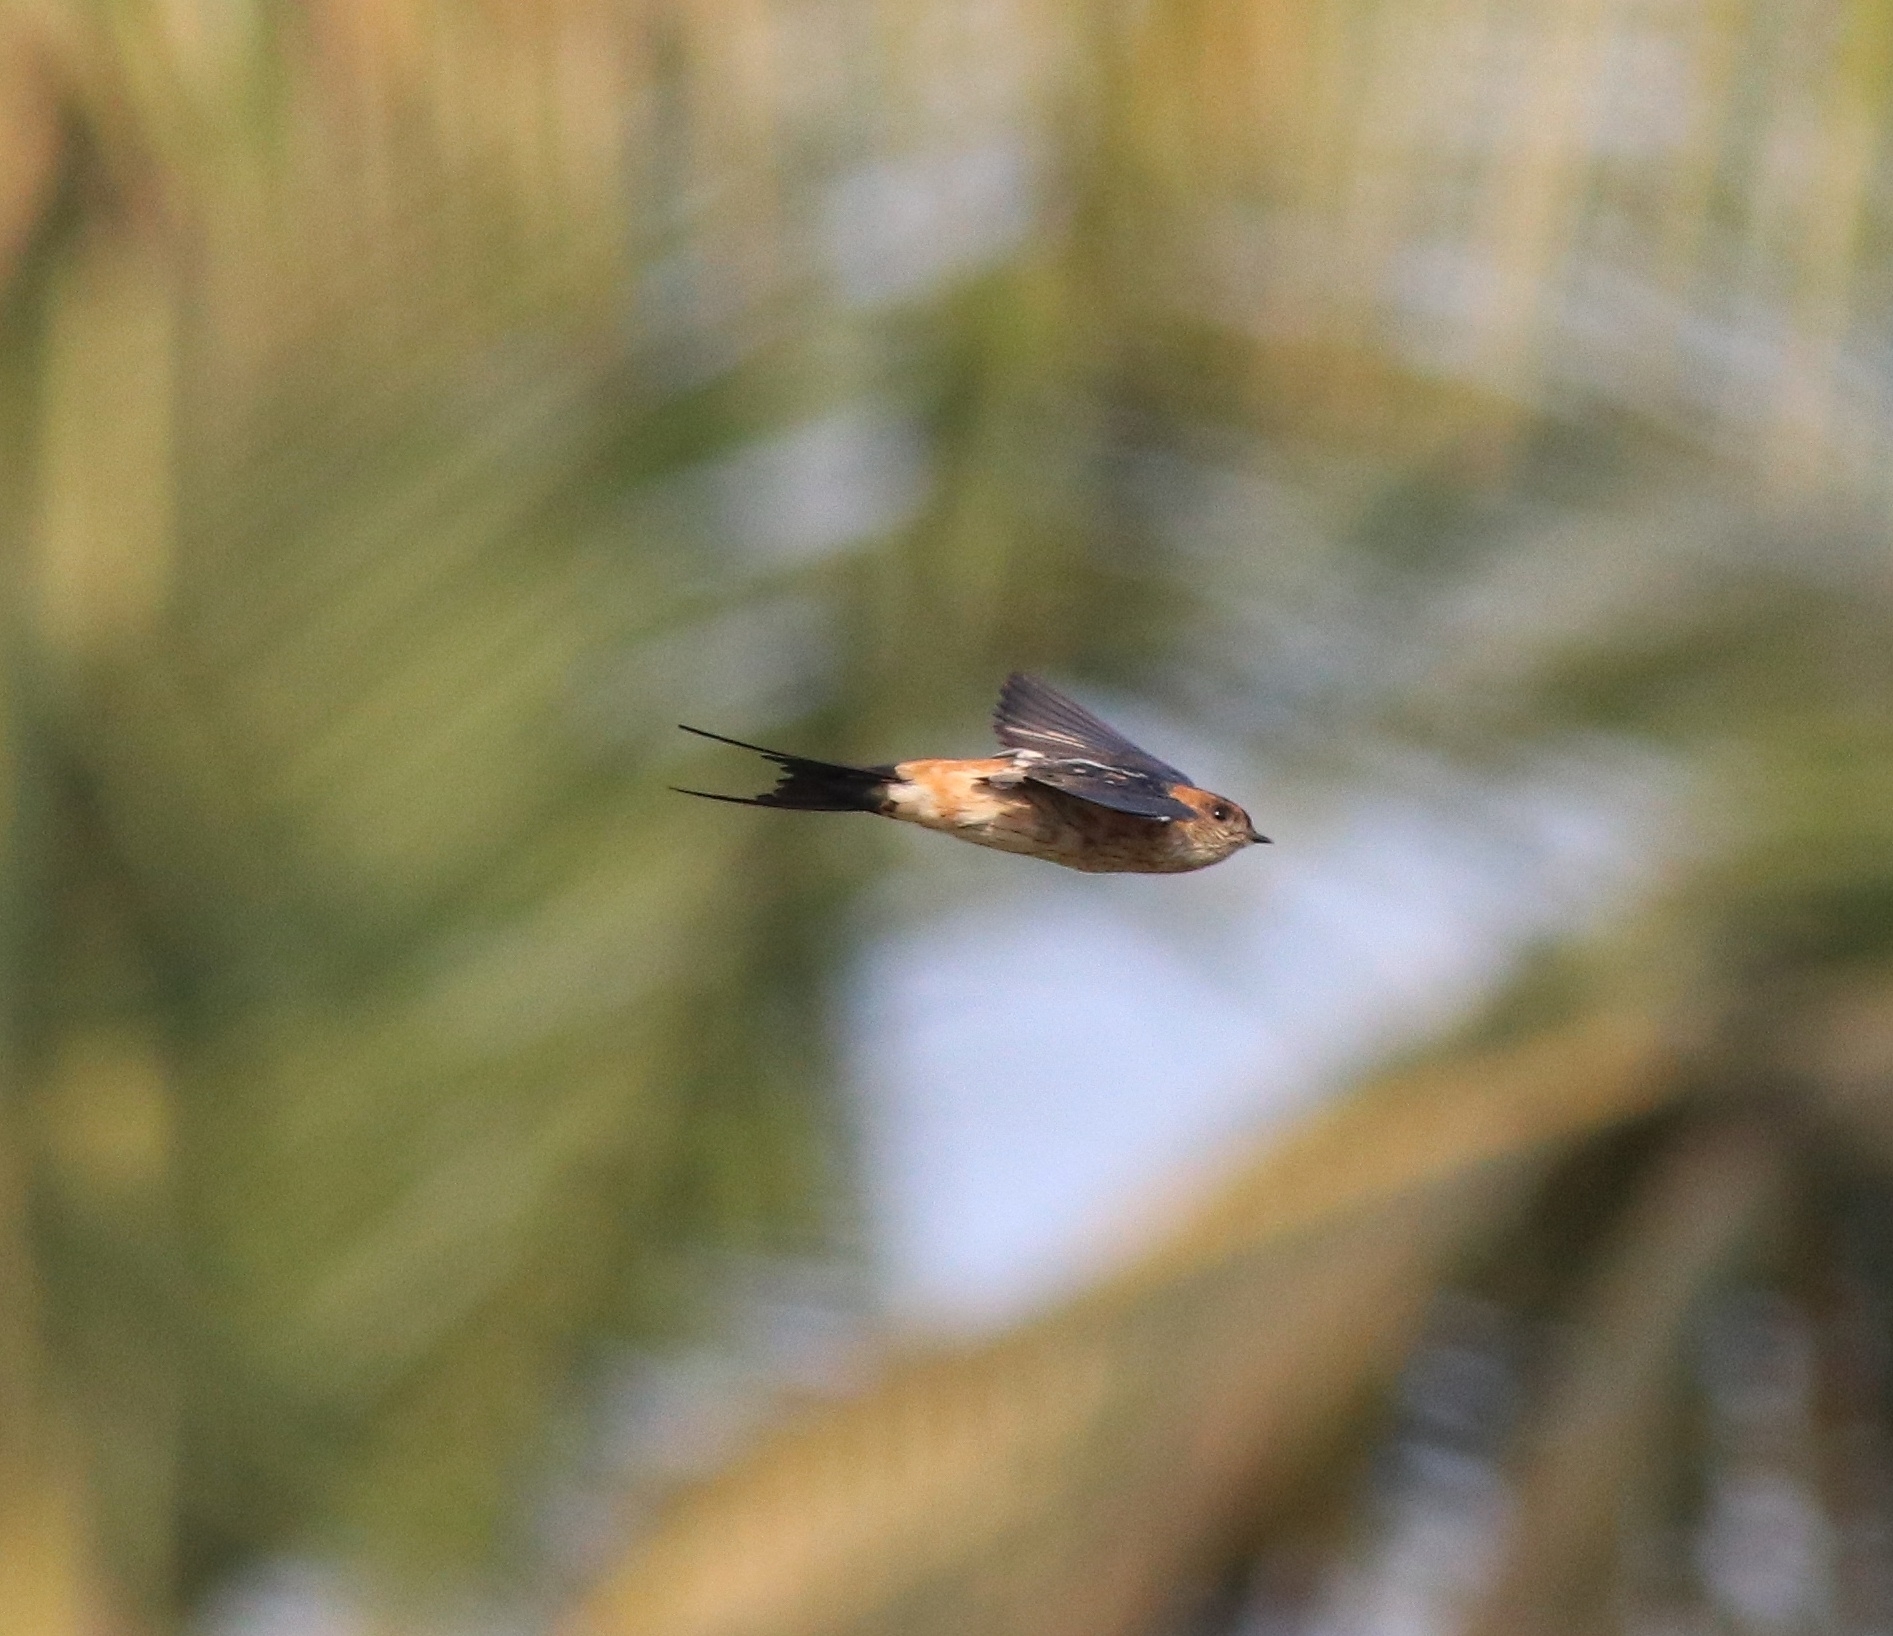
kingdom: Animalia
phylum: Chordata
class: Aves
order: Passeriformes
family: Hirundinidae
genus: Cecropis
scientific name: Cecropis daurica
